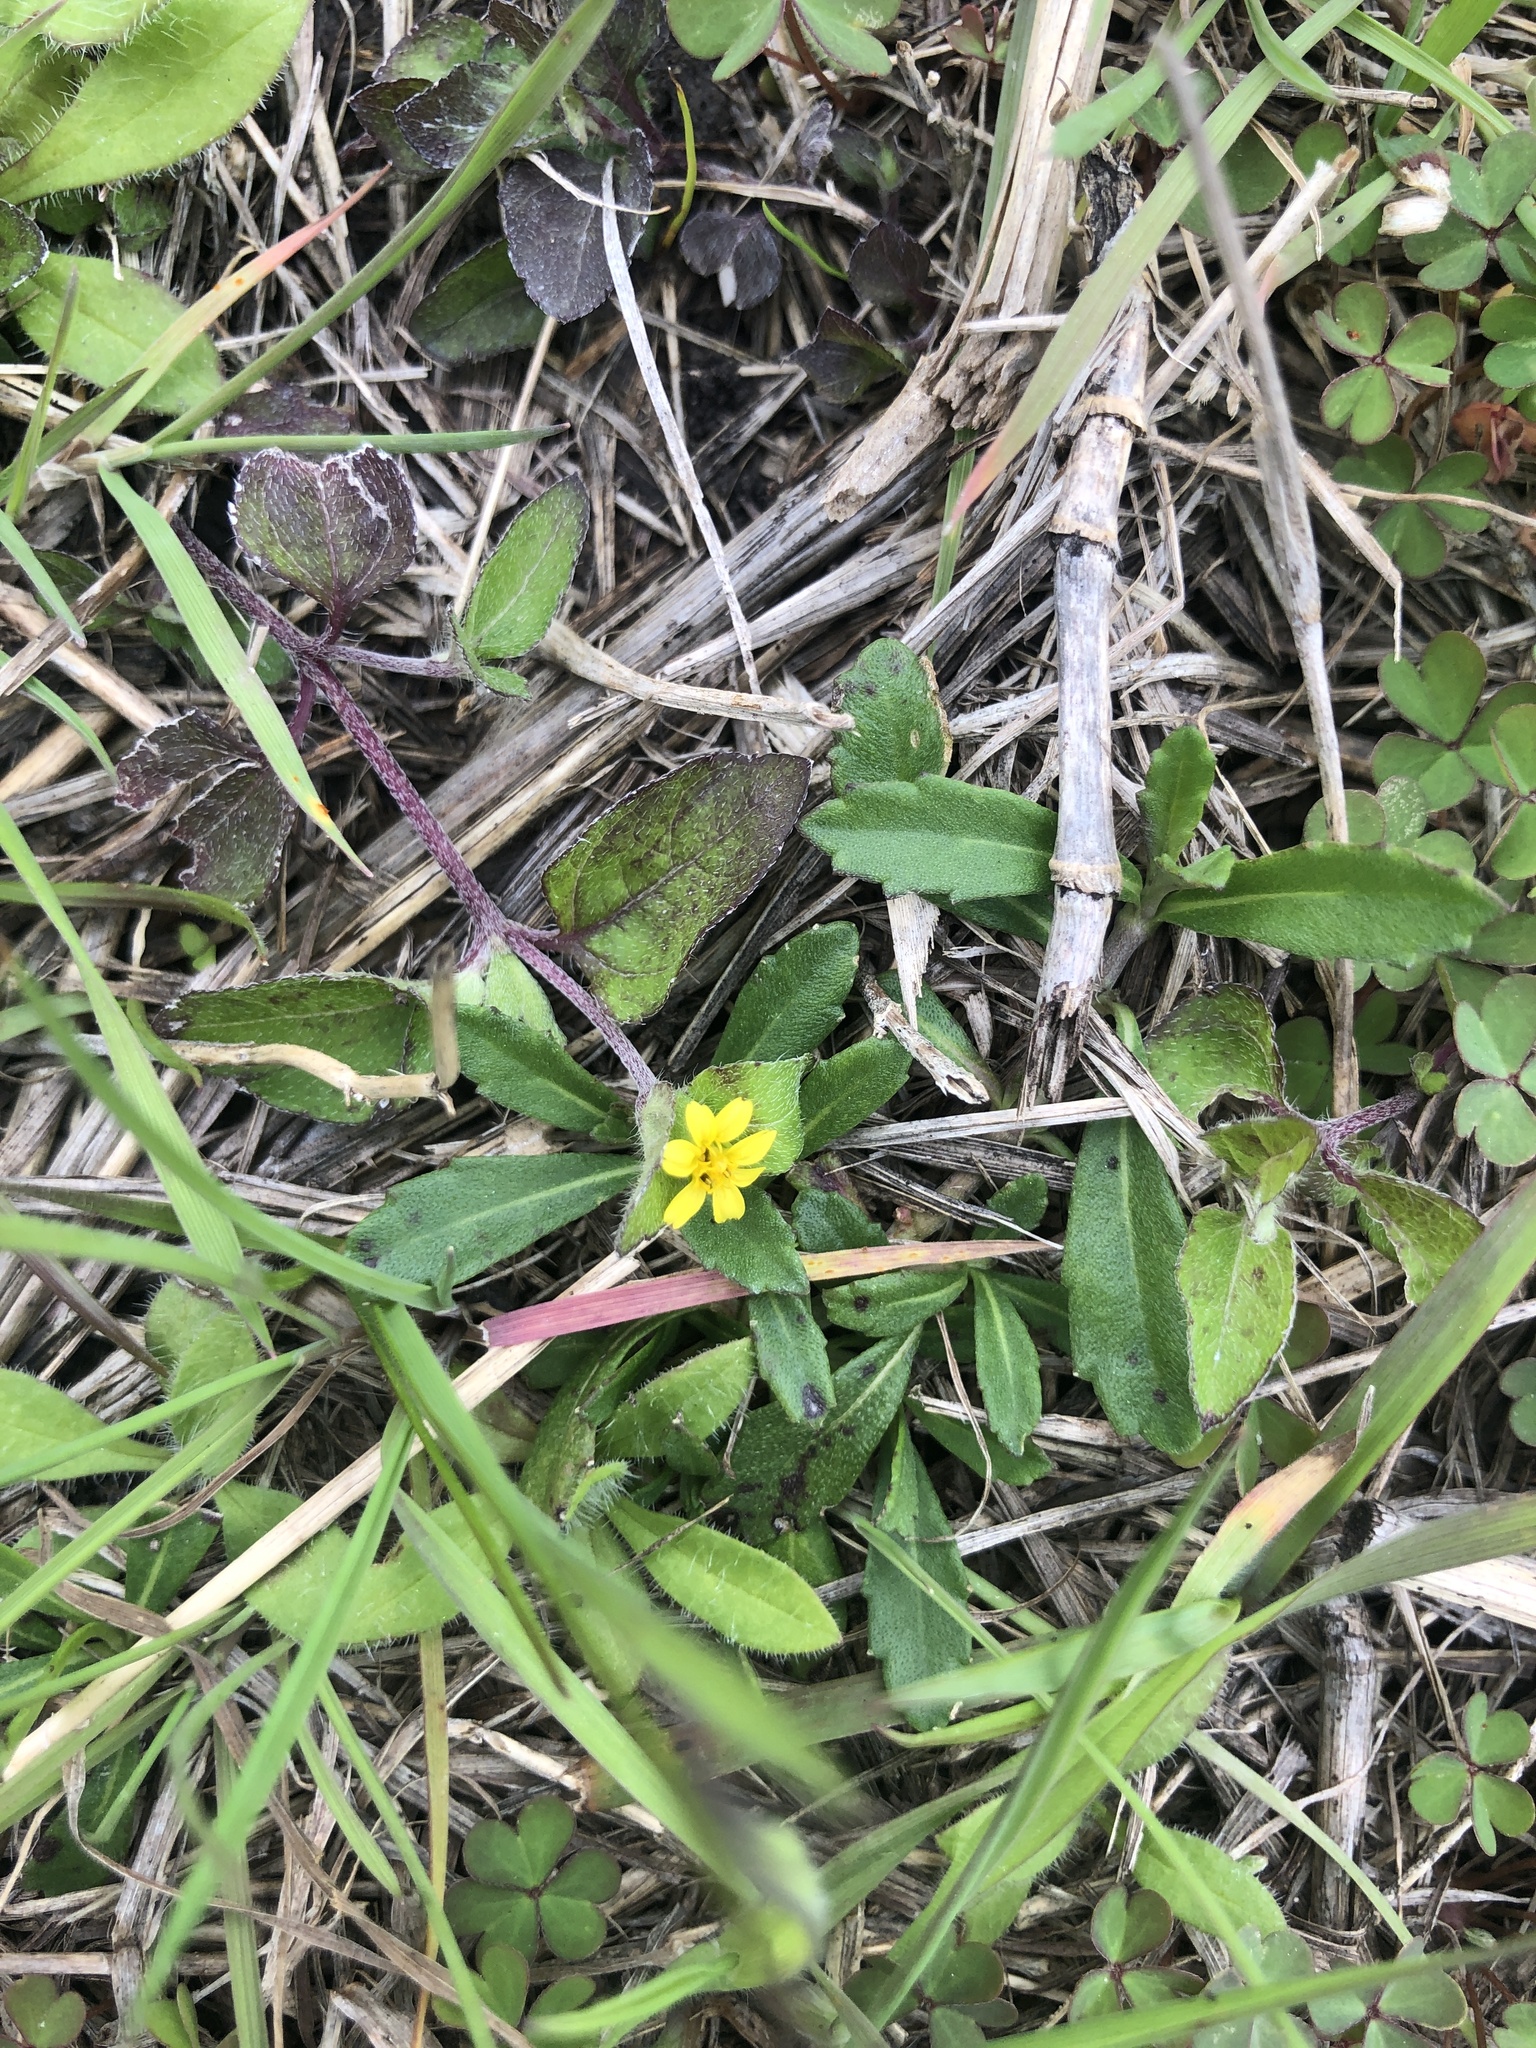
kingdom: Plantae
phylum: Tracheophyta
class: Magnoliopsida
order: Asterales
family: Asteraceae
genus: Calyptocarpus
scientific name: Calyptocarpus vialis
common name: Straggler daisy
